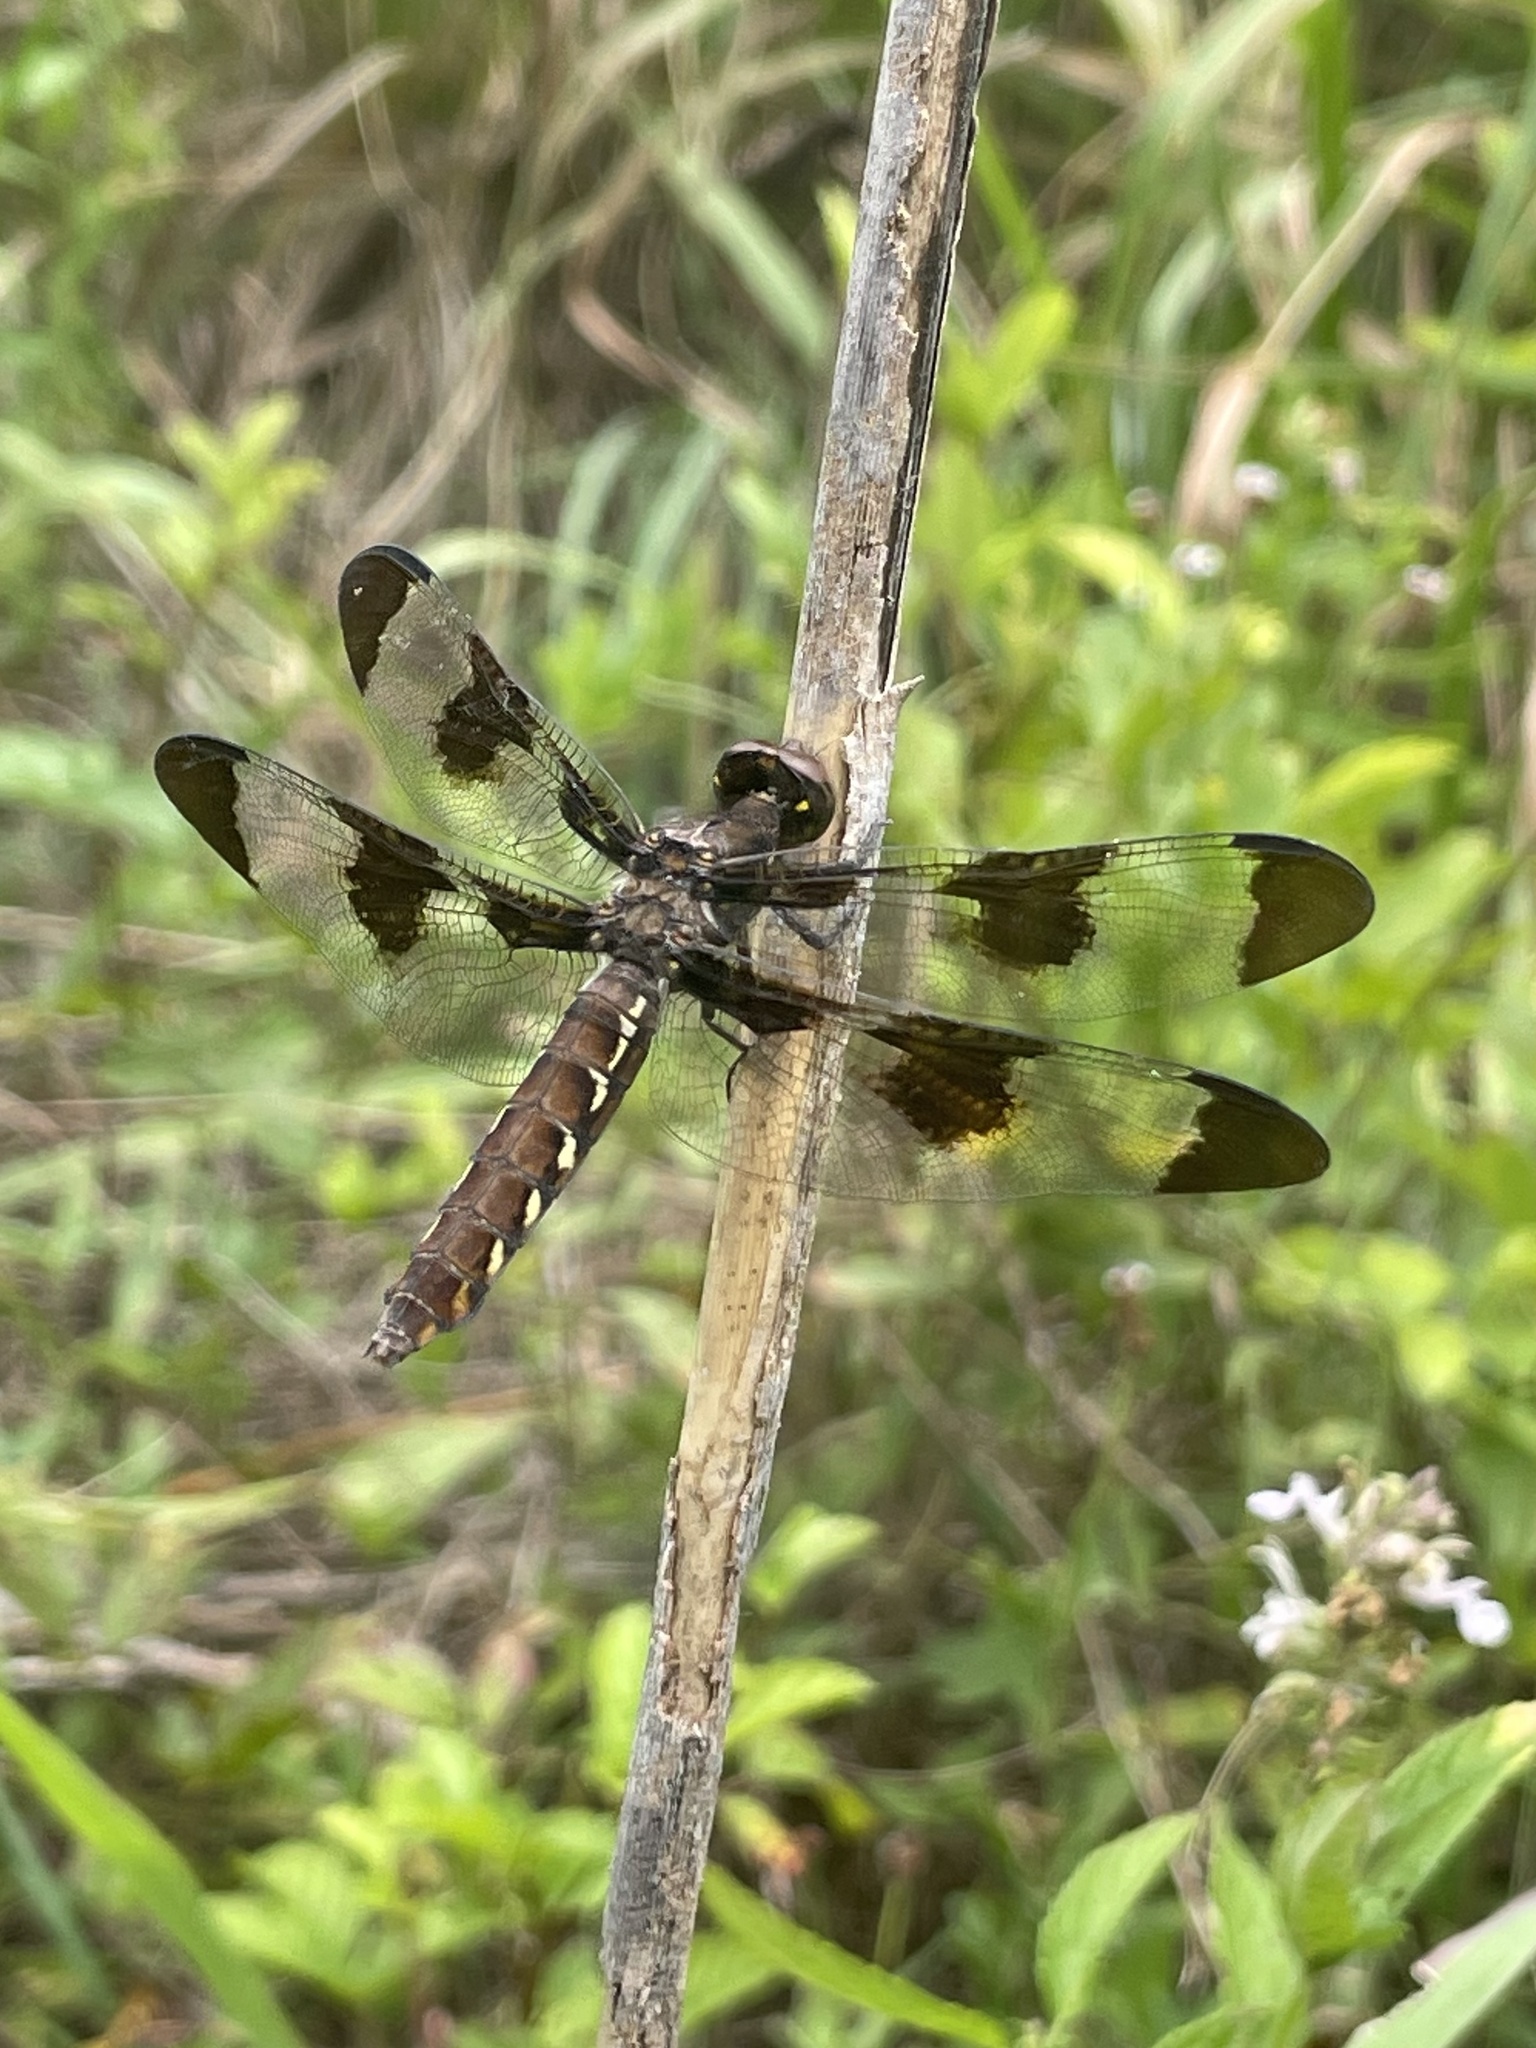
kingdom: Animalia
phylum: Arthropoda
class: Insecta
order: Odonata
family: Libellulidae
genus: Plathemis
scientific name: Plathemis lydia
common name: Common whitetail
